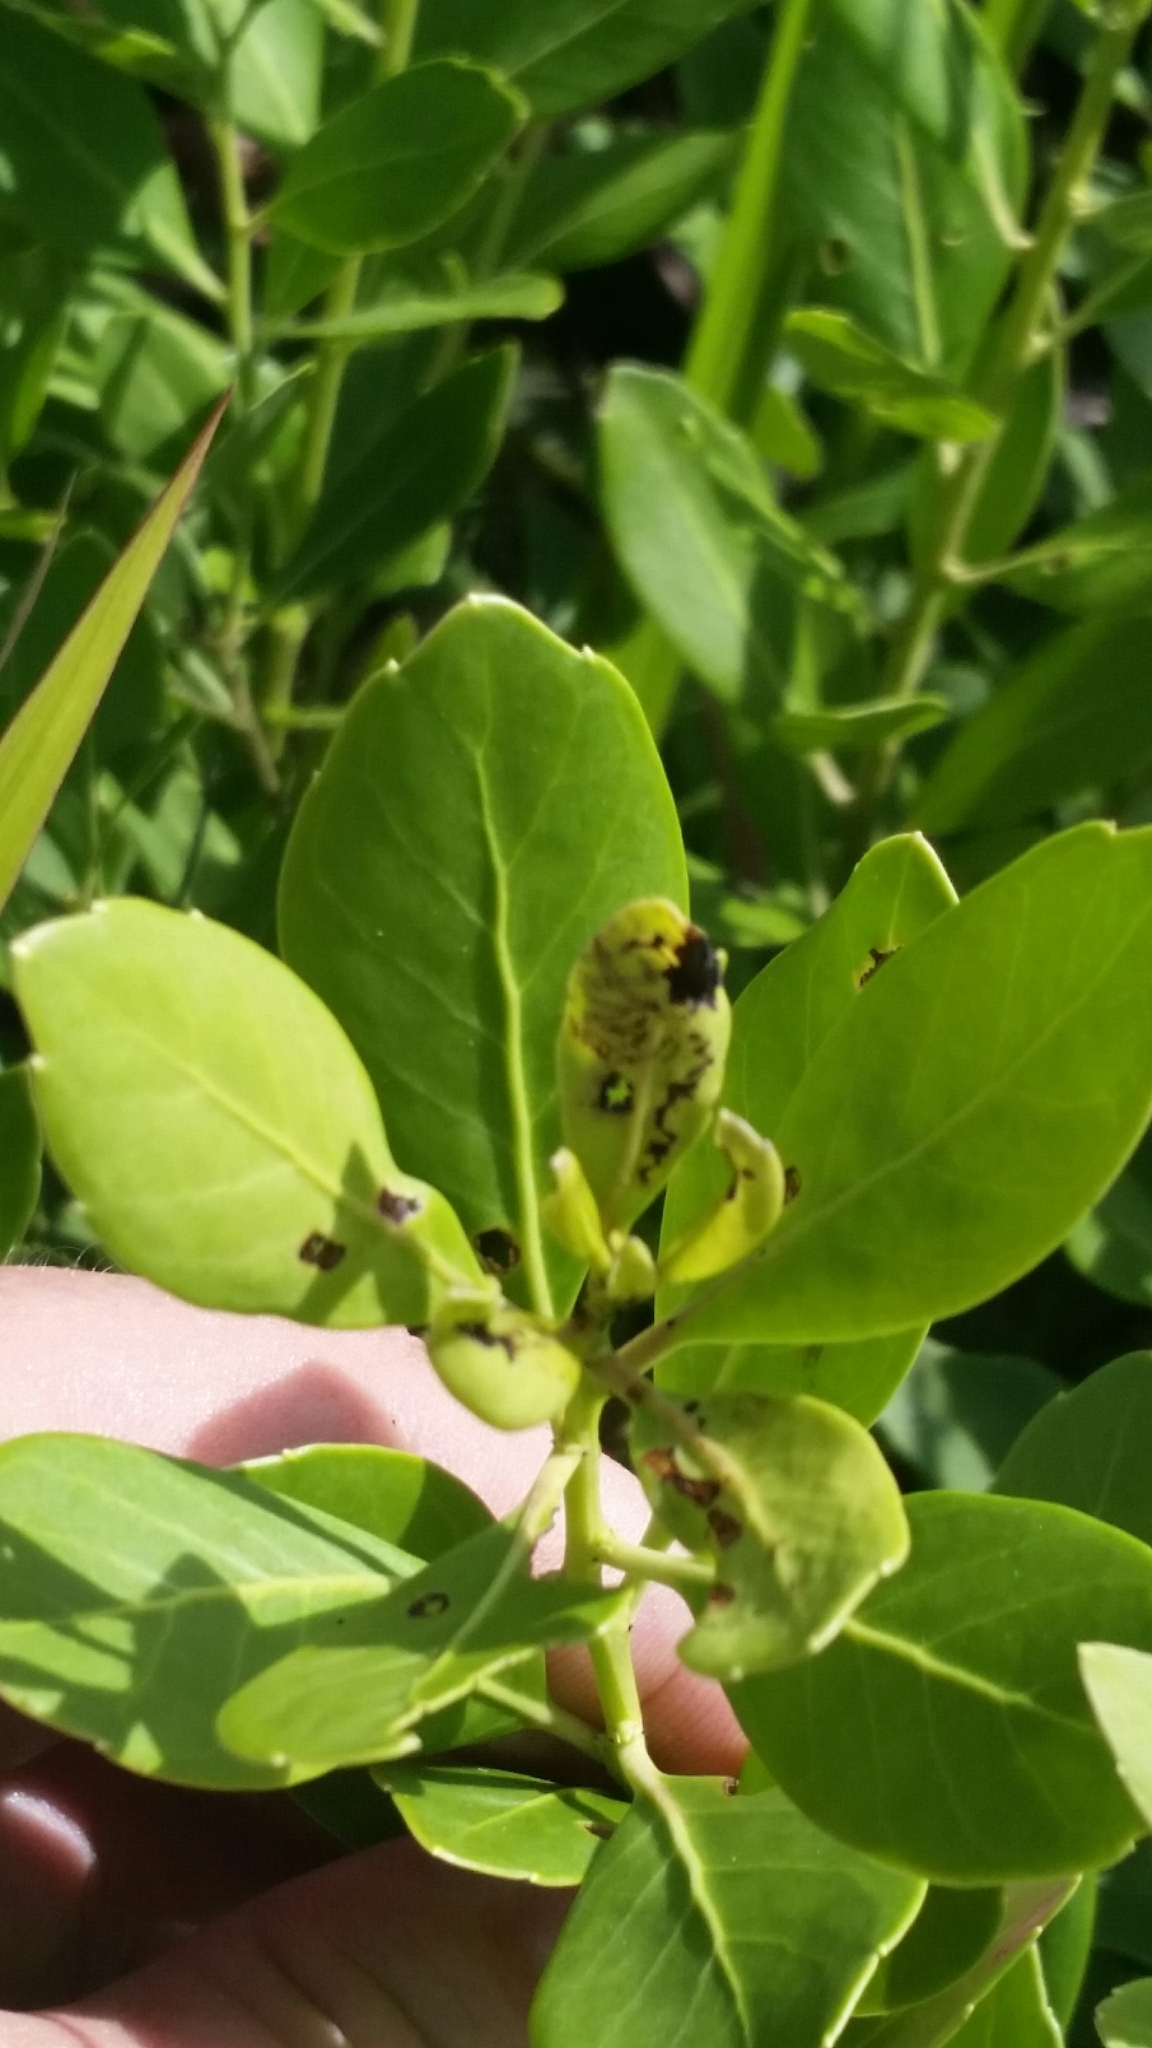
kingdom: Plantae
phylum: Tracheophyta
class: Magnoliopsida
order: Aquifoliales
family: Aquifoliaceae
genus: Ilex
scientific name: Ilex glabra
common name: Bitter gallberry
